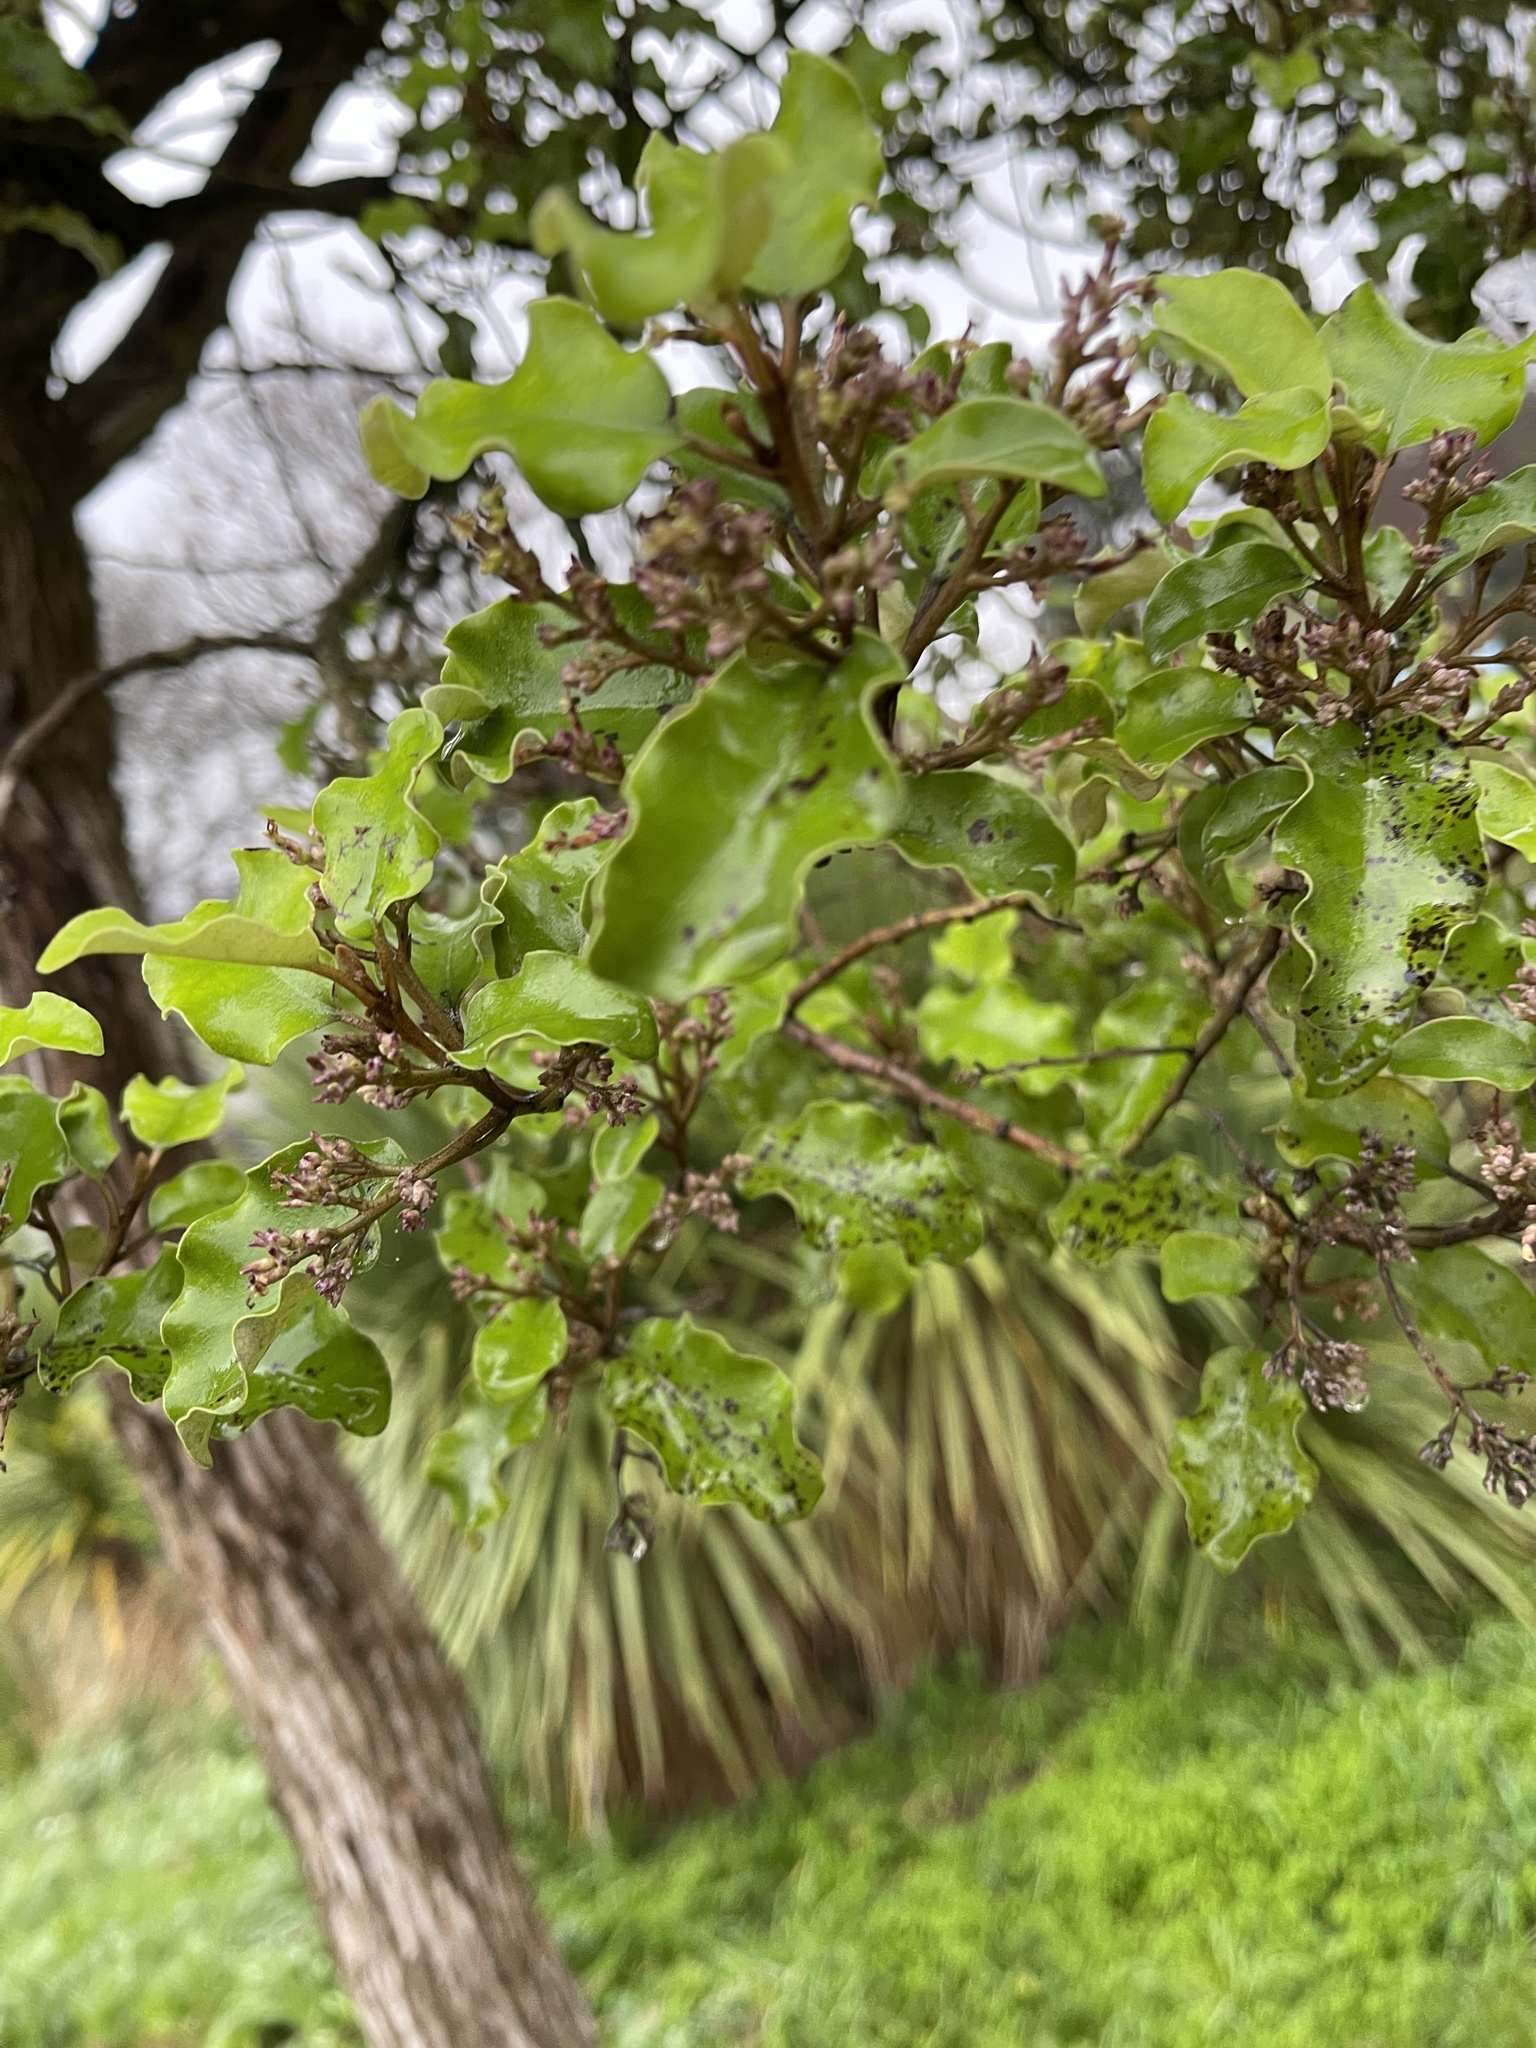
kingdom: Plantae
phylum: Tracheophyta
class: Magnoliopsida
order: Asterales
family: Asteraceae
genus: Olearia
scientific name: Olearia paniculata
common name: Akiraho
